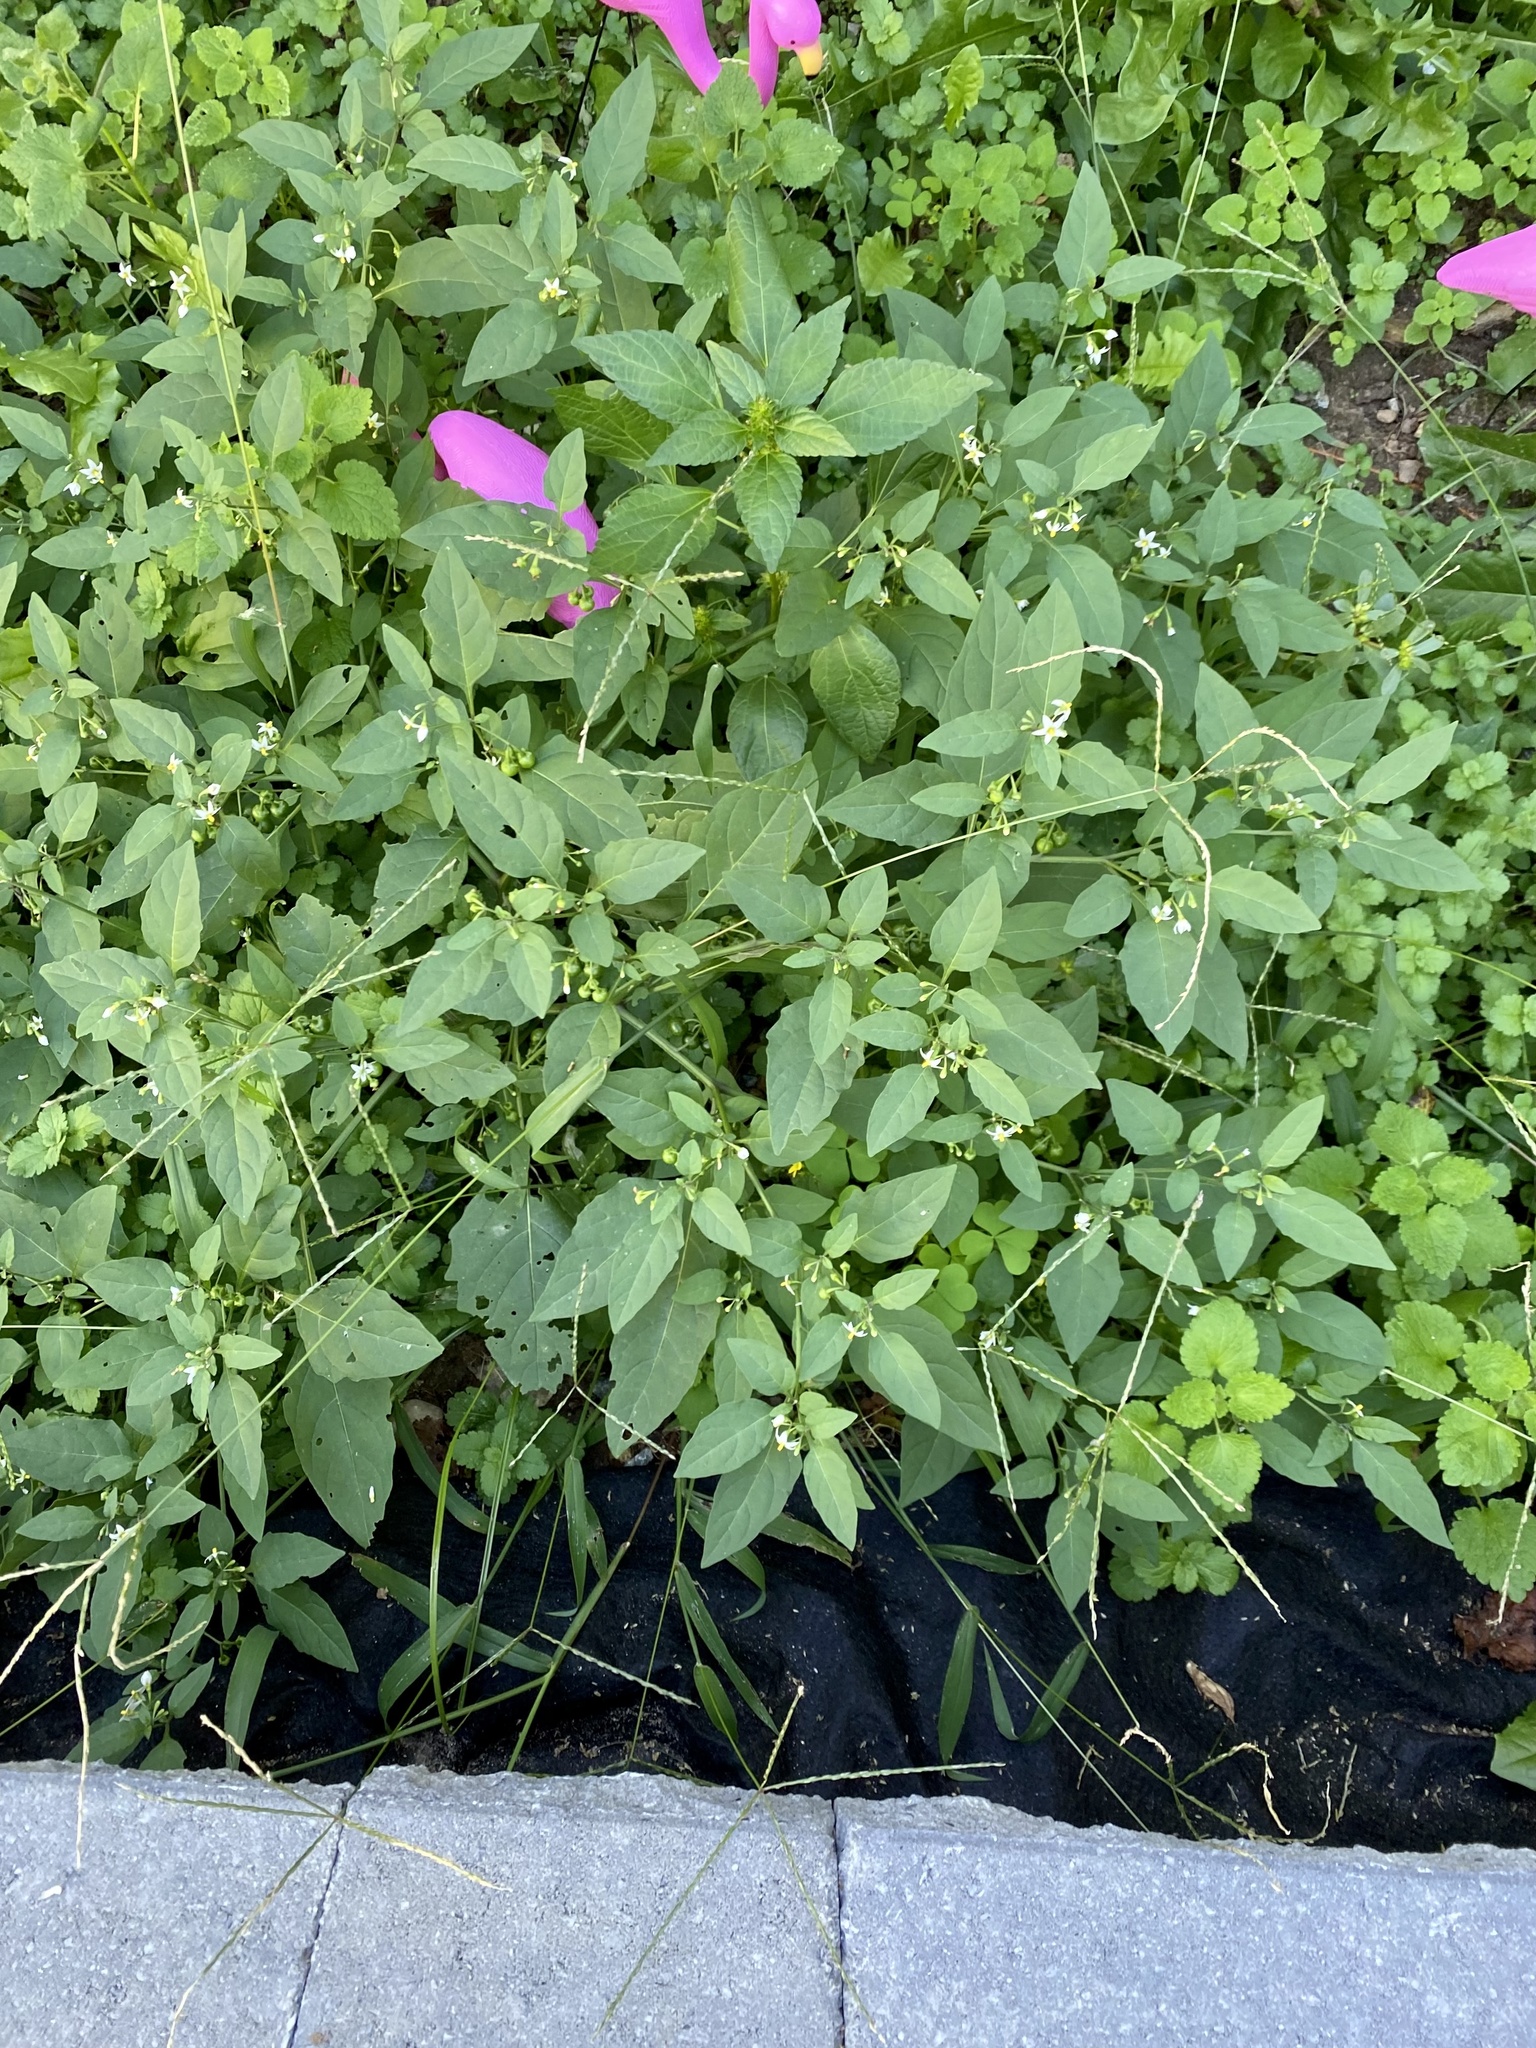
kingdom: Plantae
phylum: Tracheophyta
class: Magnoliopsida
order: Solanales
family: Solanaceae
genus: Solanum
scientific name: Solanum emulans
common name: Eastern black nightshade
